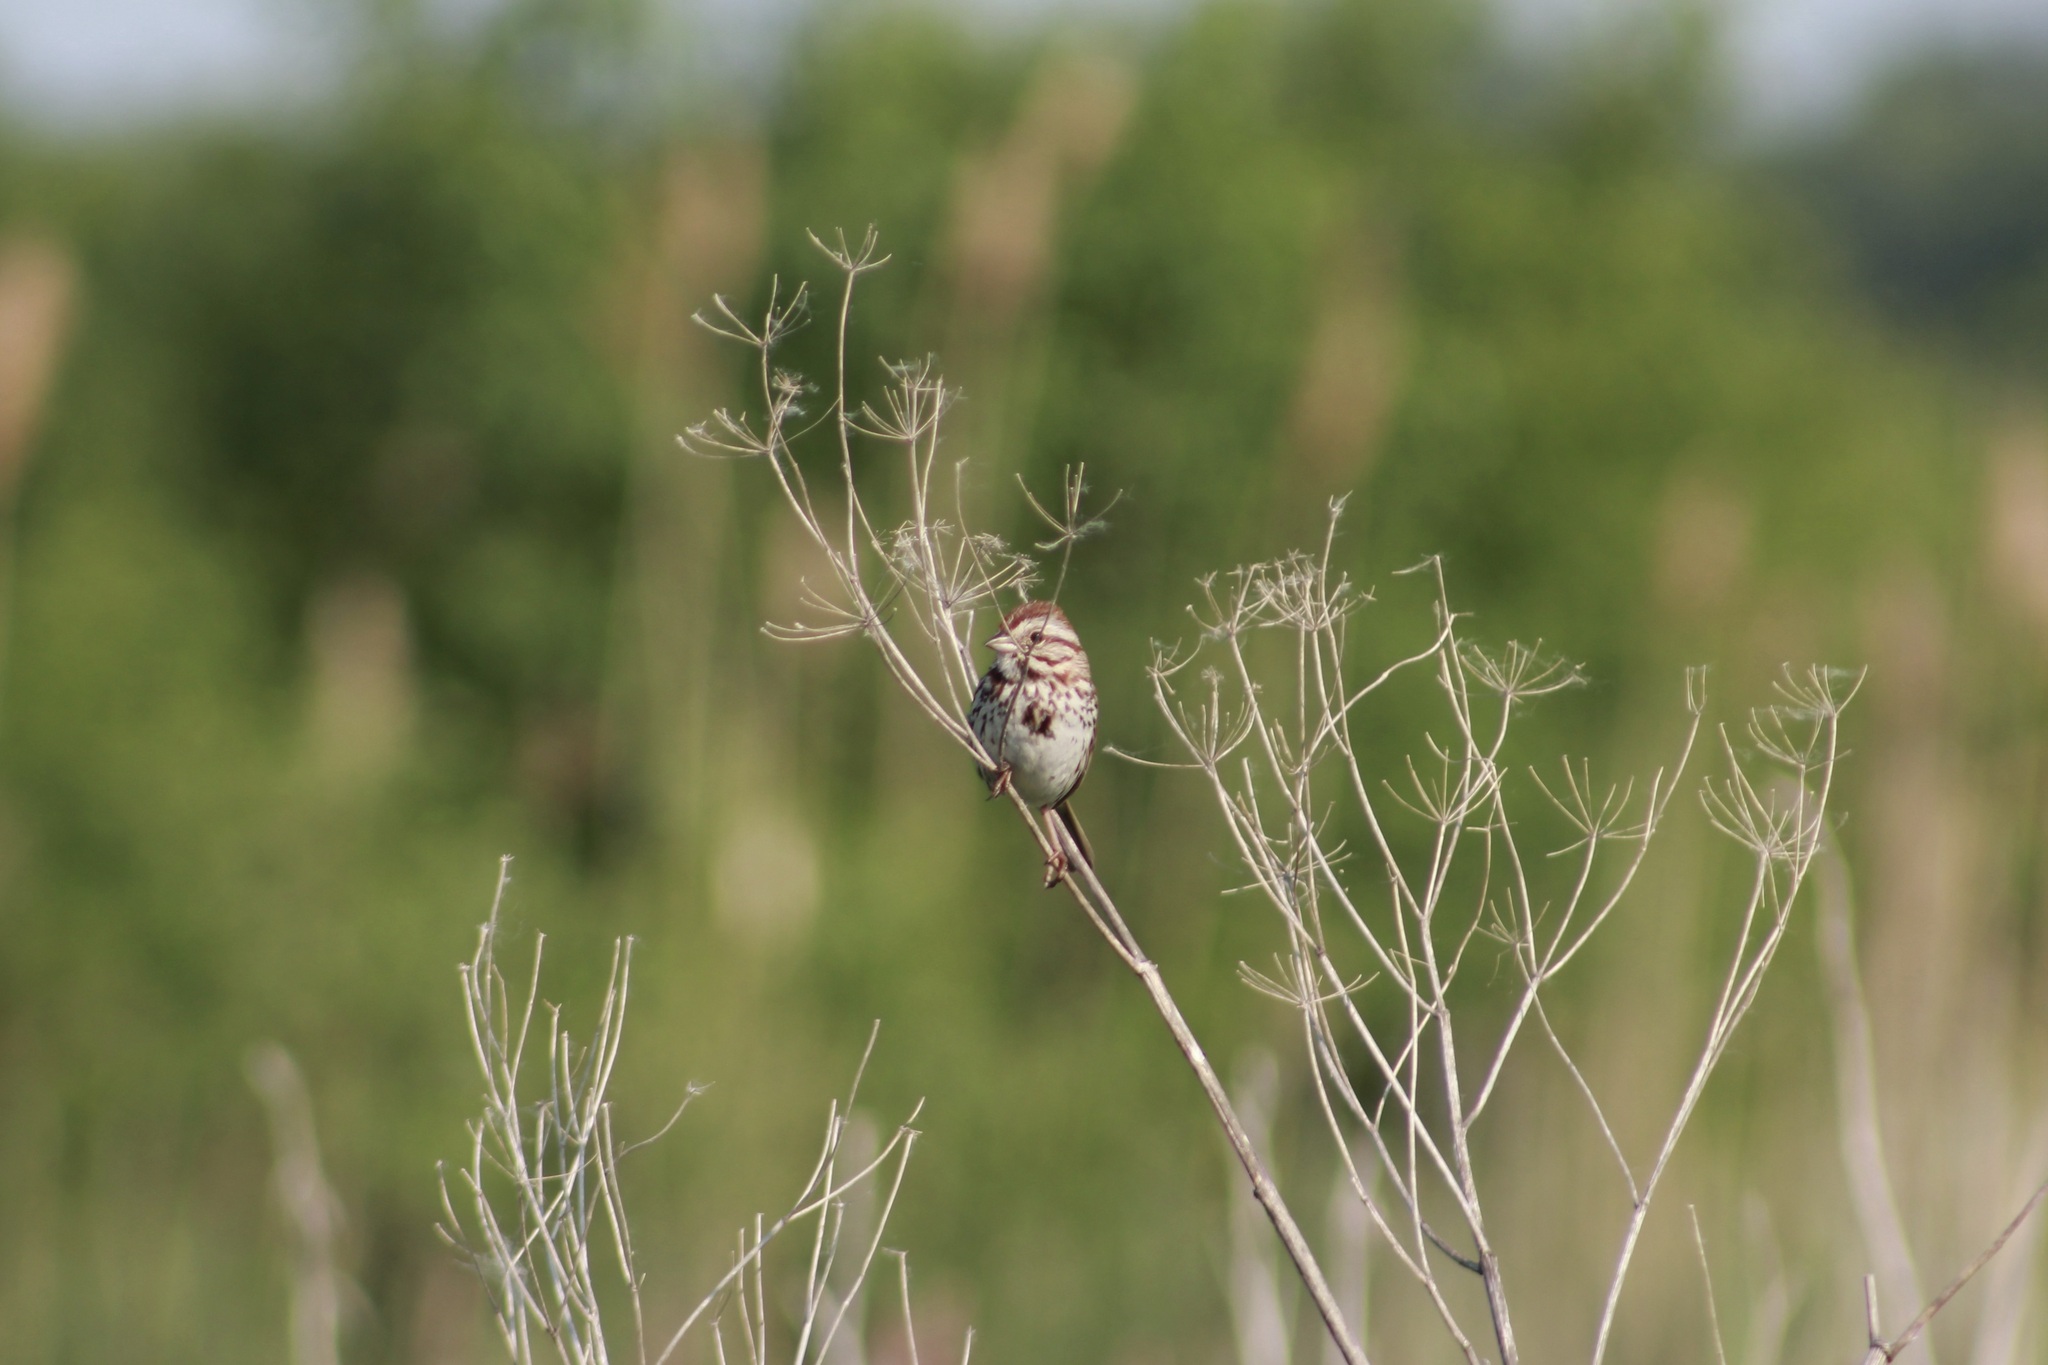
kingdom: Animalia
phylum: Chordata
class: Aves
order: Passeriformes
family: Passerellidae
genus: Melospiza
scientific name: Melospiza melodia
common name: Song sparrow
